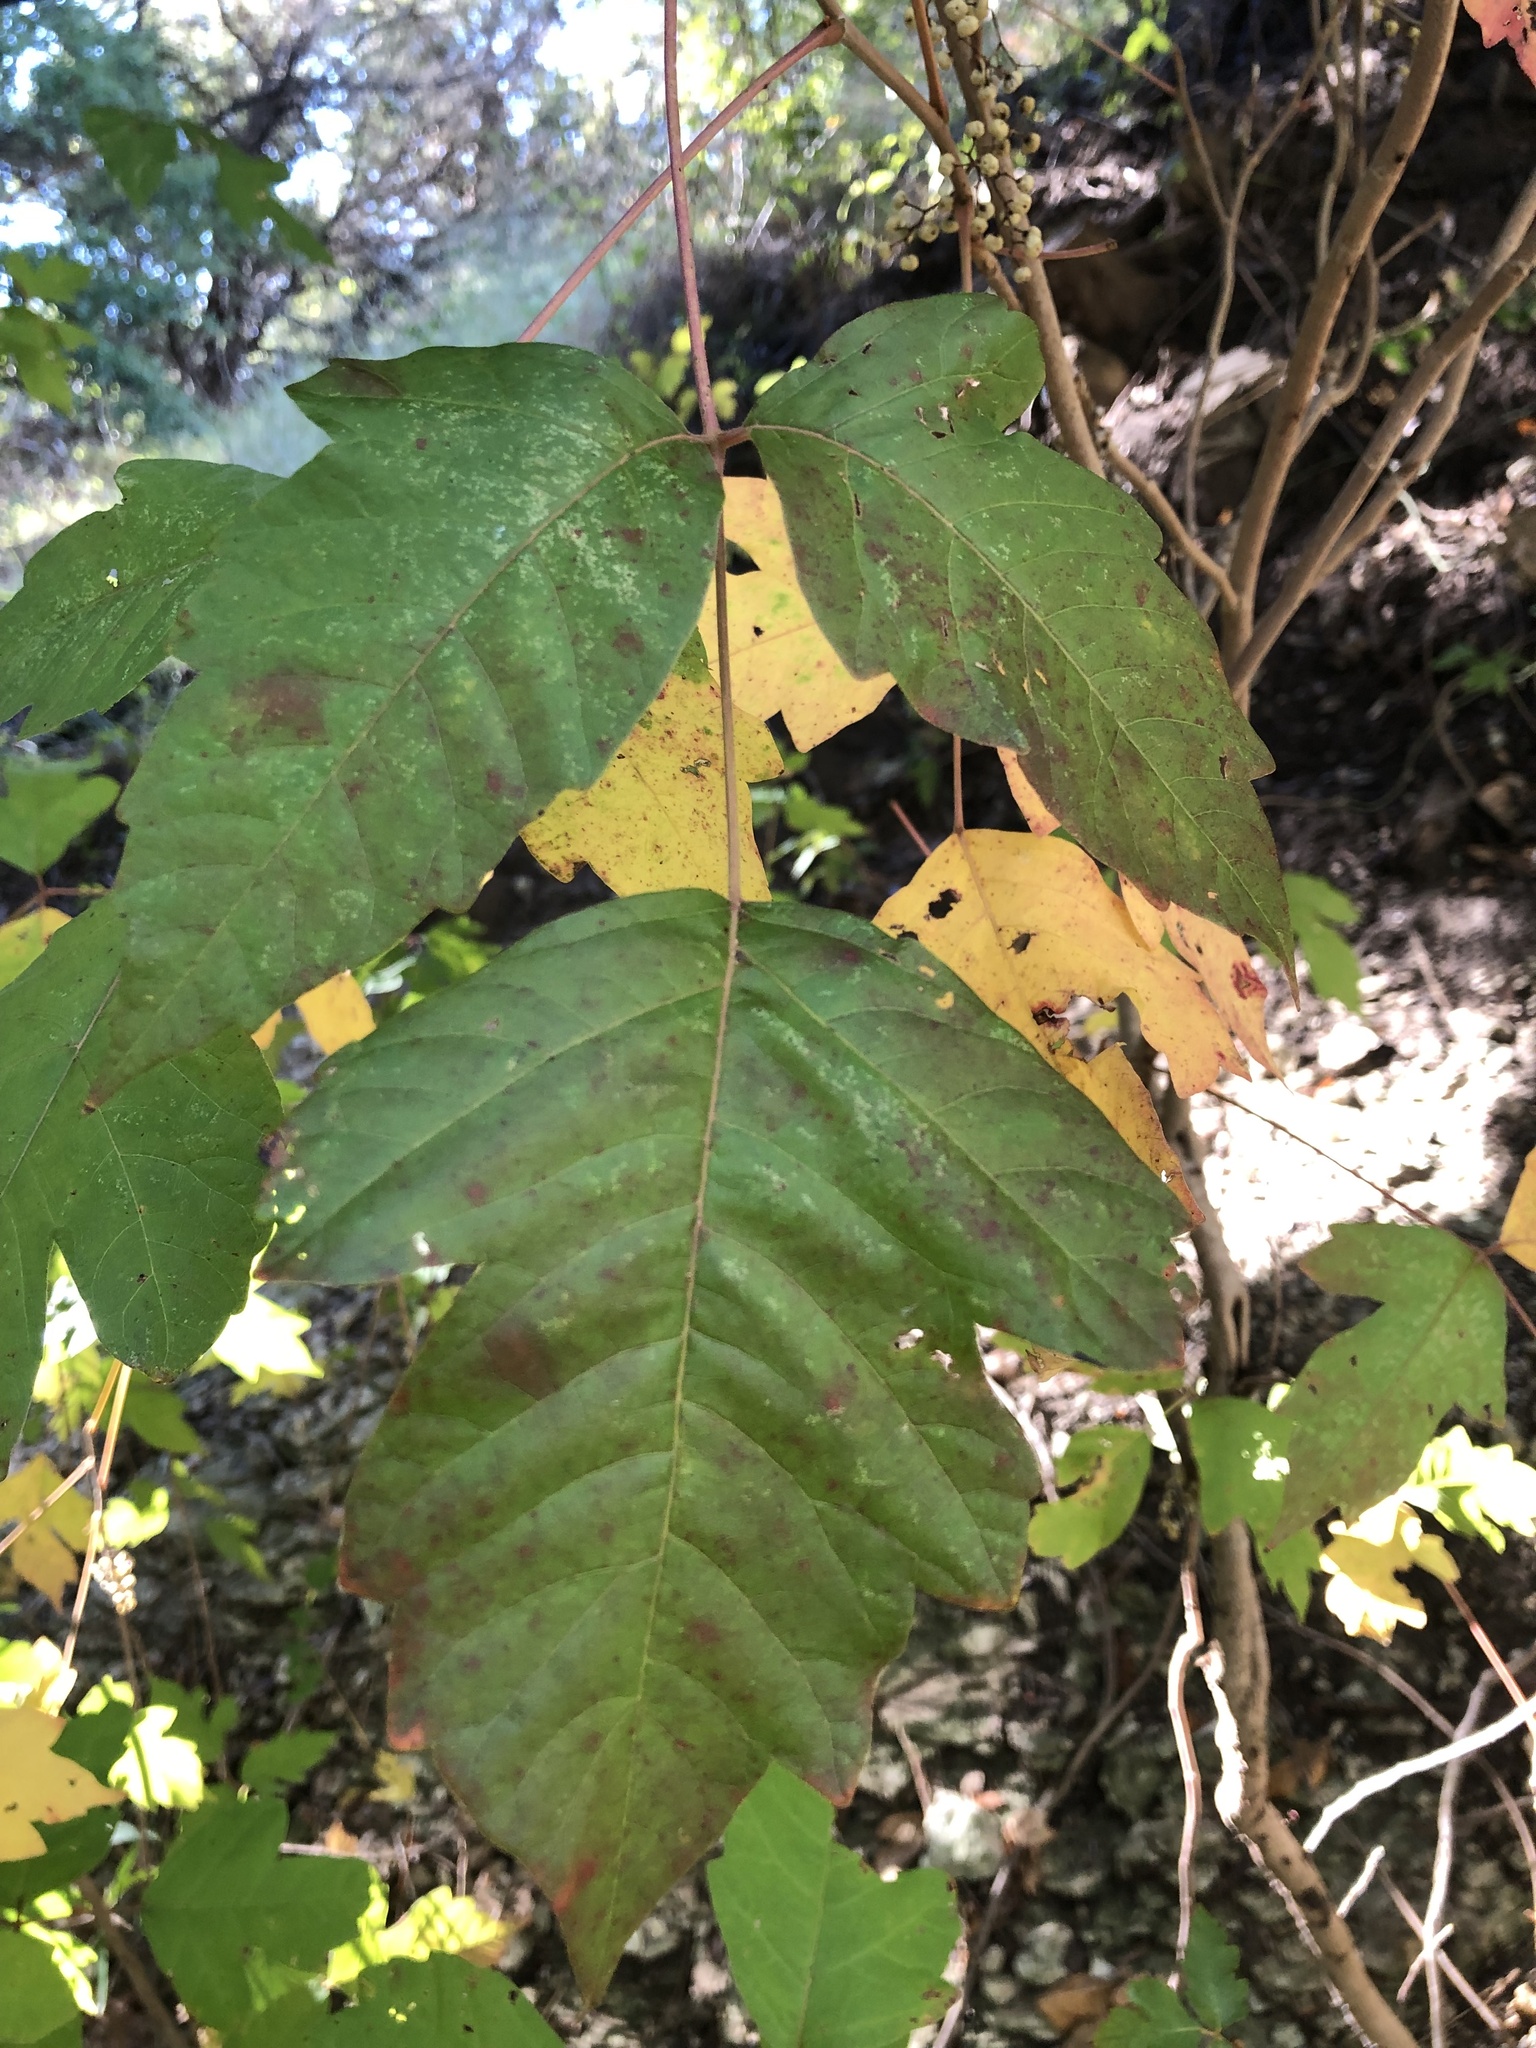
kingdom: Plantae
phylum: Tracheophyta
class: Magnoliopsida
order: Sapindales
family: Anacardiaceae
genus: Toxicodendron
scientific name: Toxicodendron radicans
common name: Poison ivy
